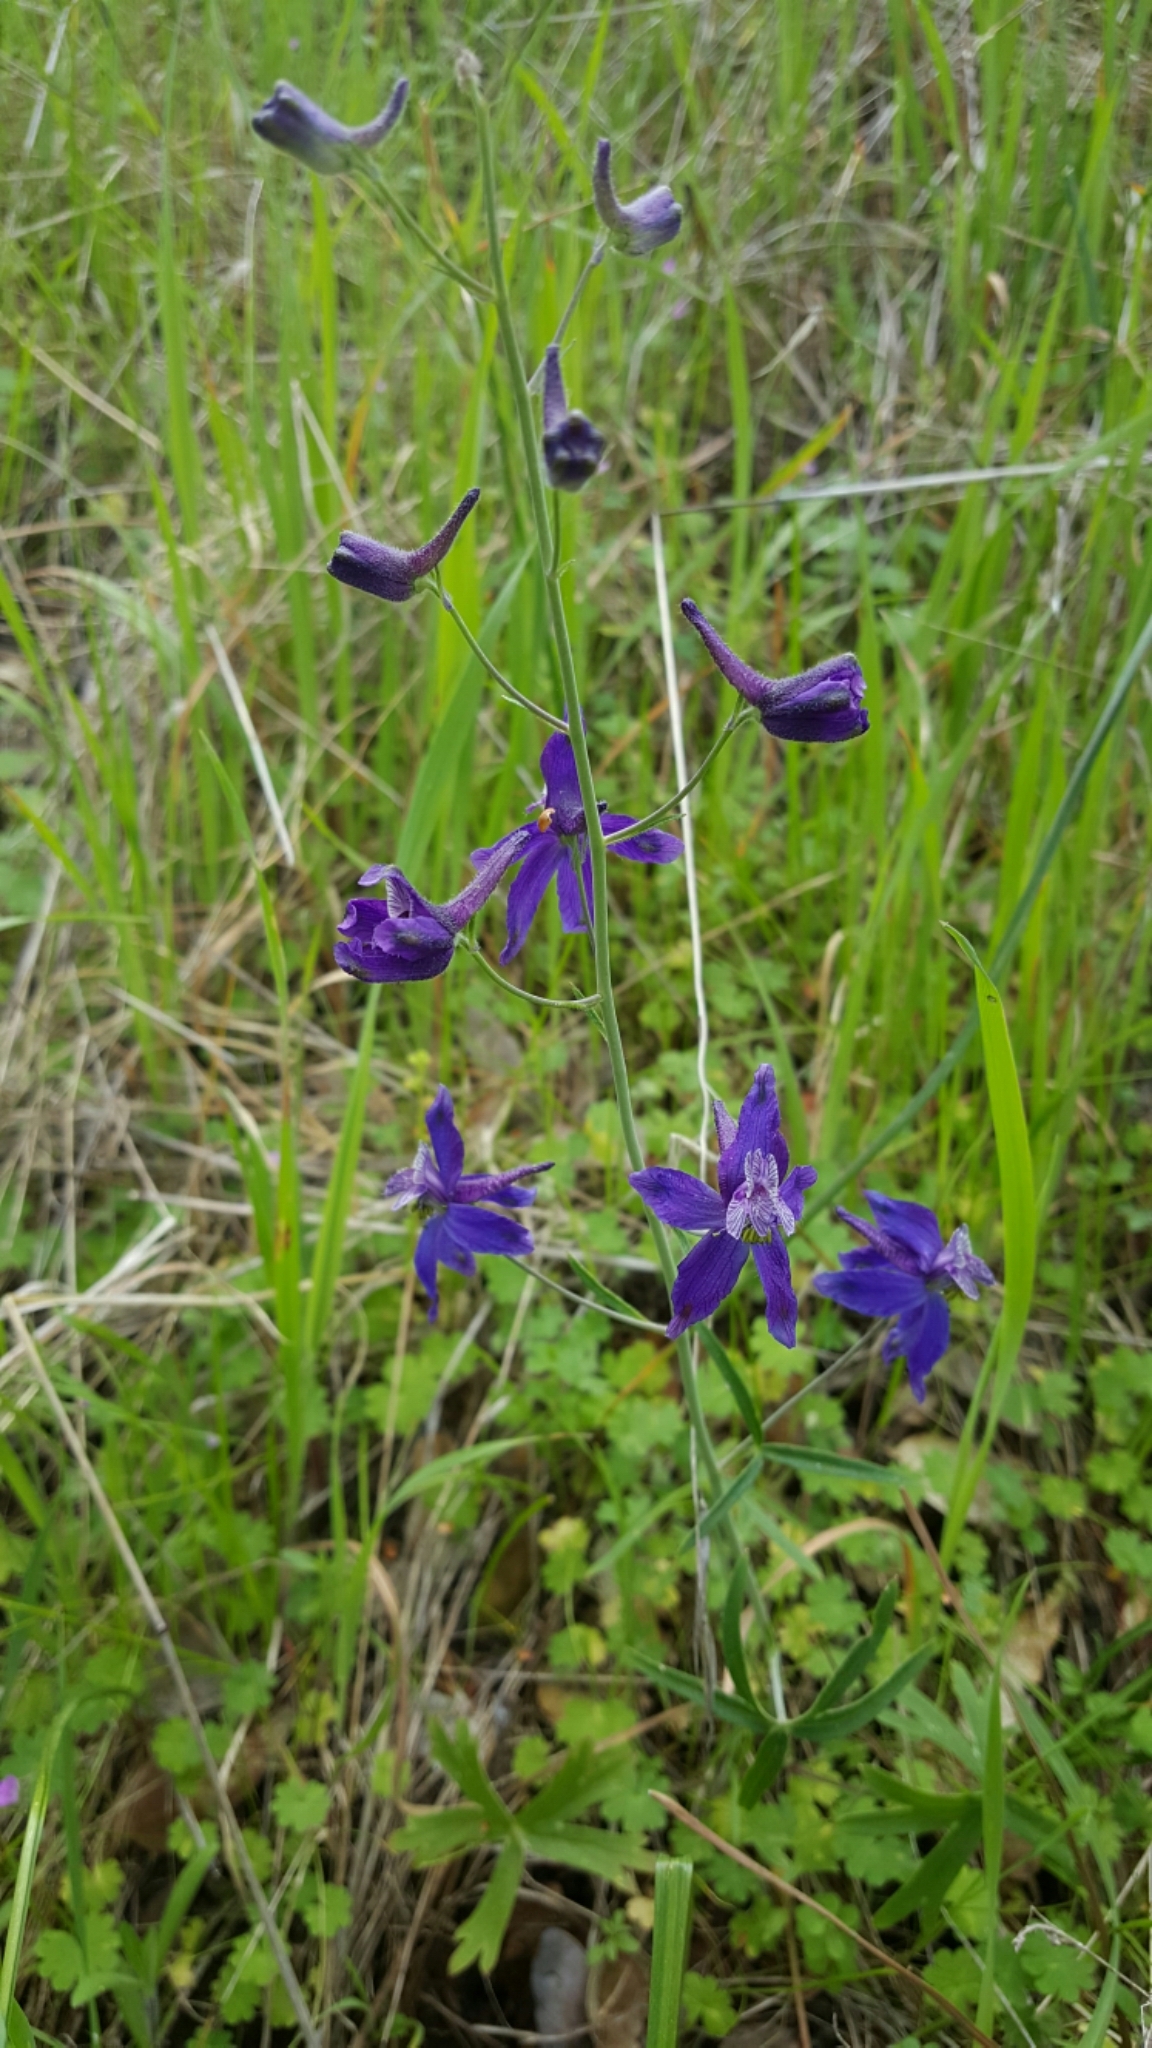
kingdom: Plantae
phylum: Tracheophyta
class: Magnoliopsida
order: Ranunculales
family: Ranunculaceae
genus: Delphinium
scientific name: Delphinium patens
